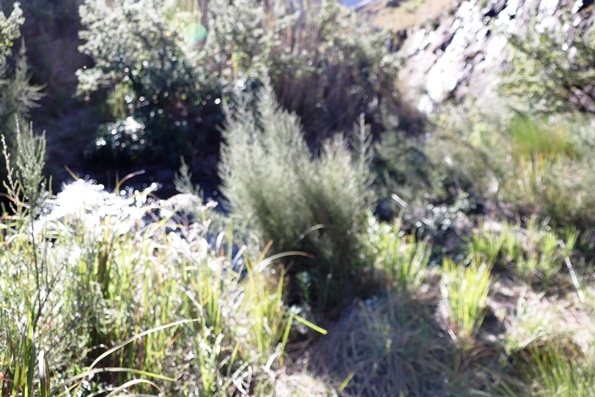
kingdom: Plantae
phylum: Tracheophyta
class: Magnoliopsida
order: Rosales
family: Rosaceae
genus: Cliffortia
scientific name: Cliffortia linearifolia
